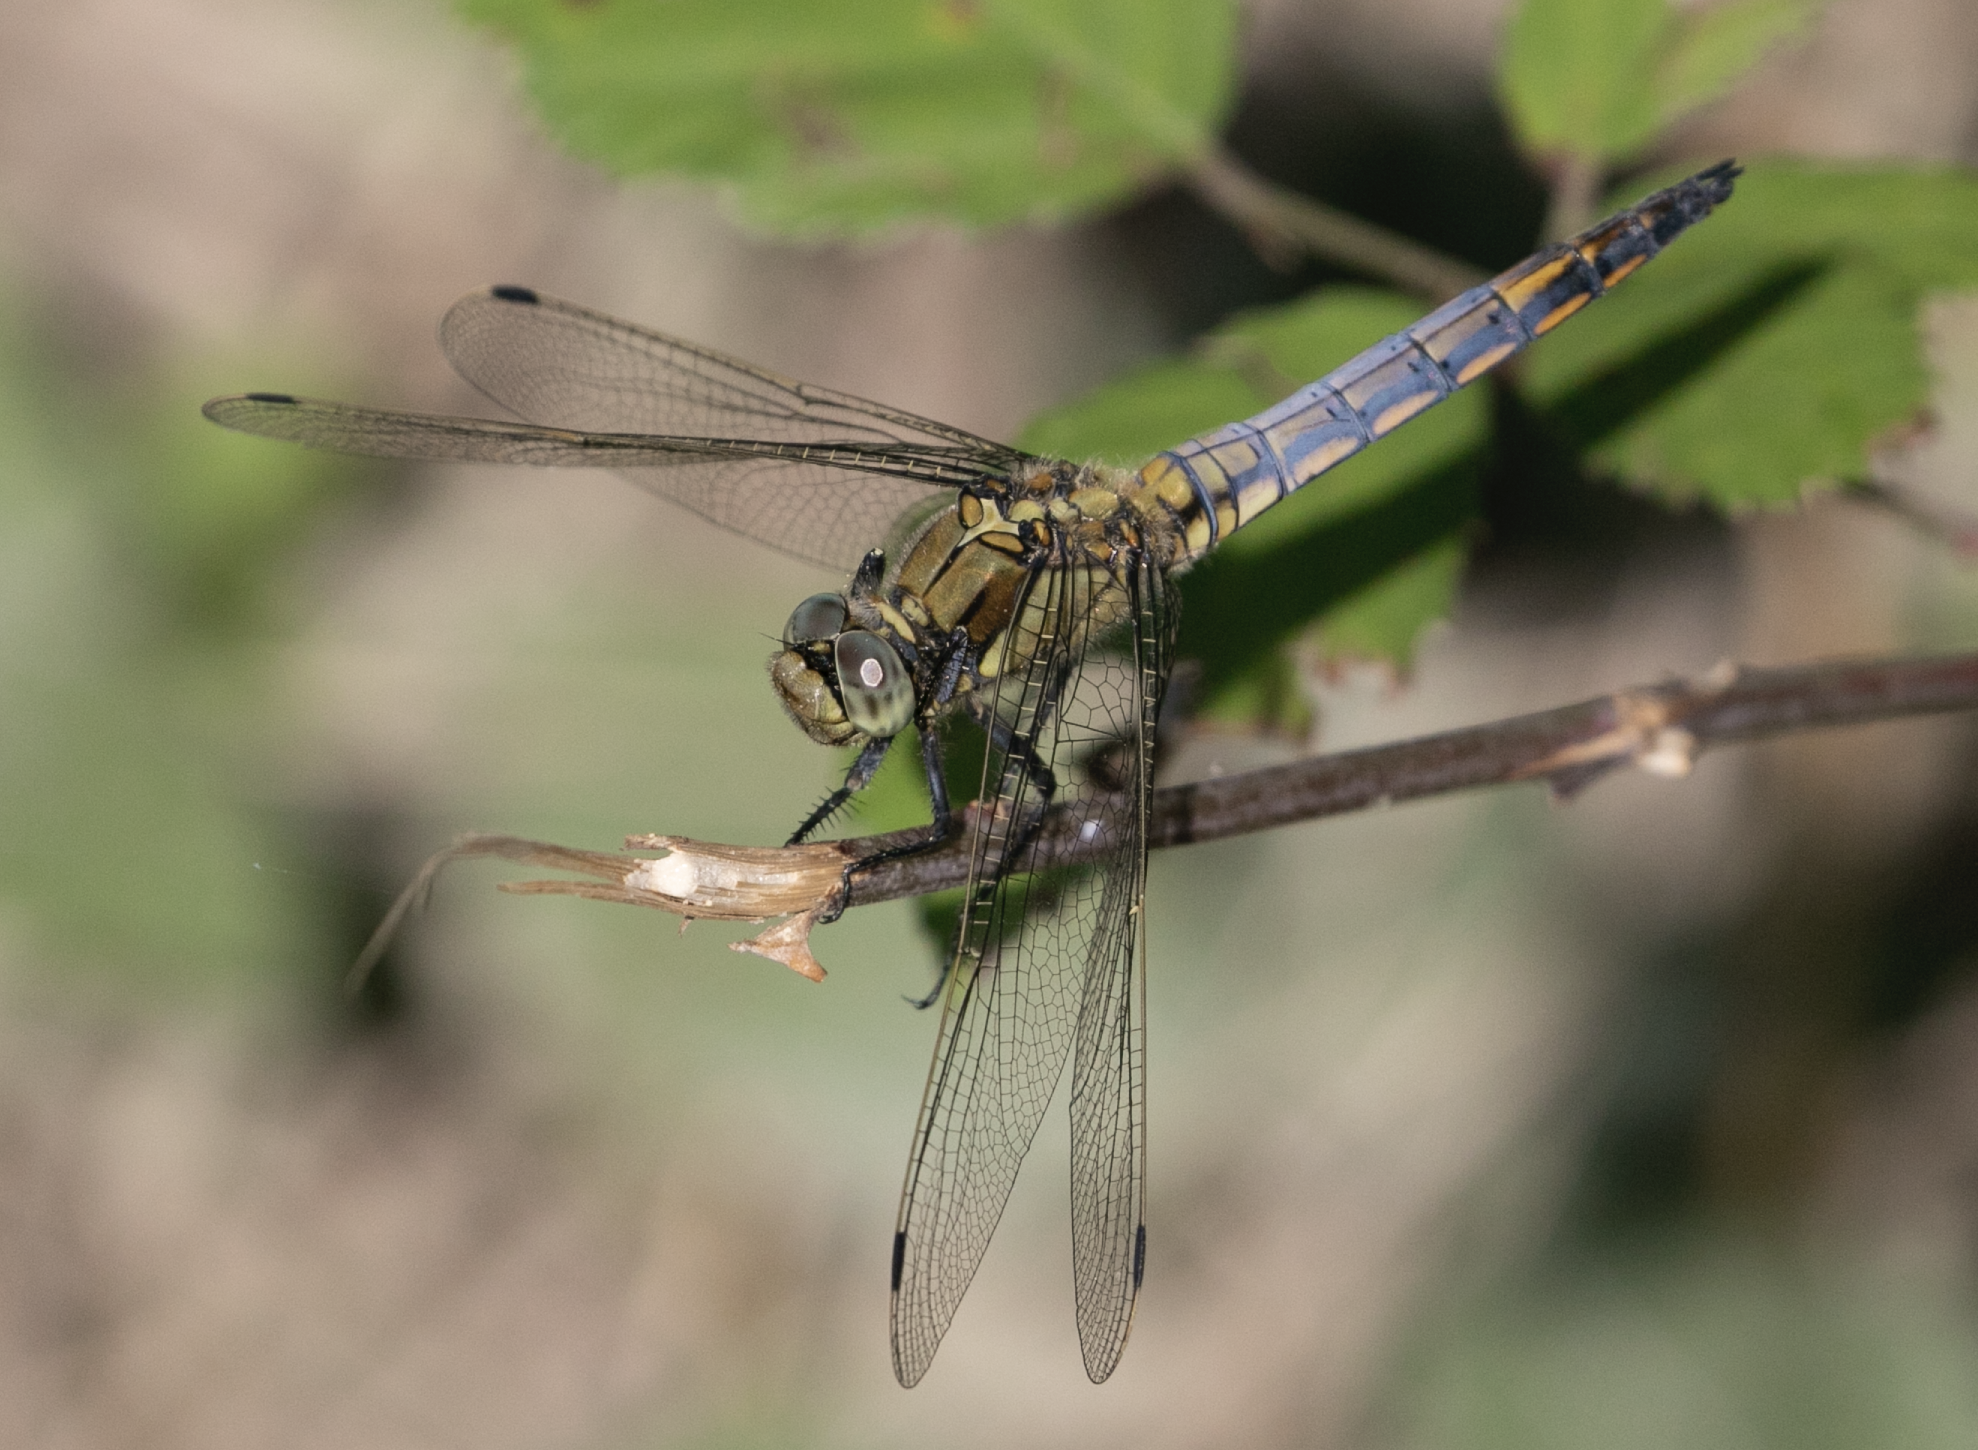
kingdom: Animalia
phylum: Arthropoda
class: Insecta
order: Odonata
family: Libellulidae
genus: Orthetrum
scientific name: Orthetrum cancellatum
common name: Black-tailed skimmer
